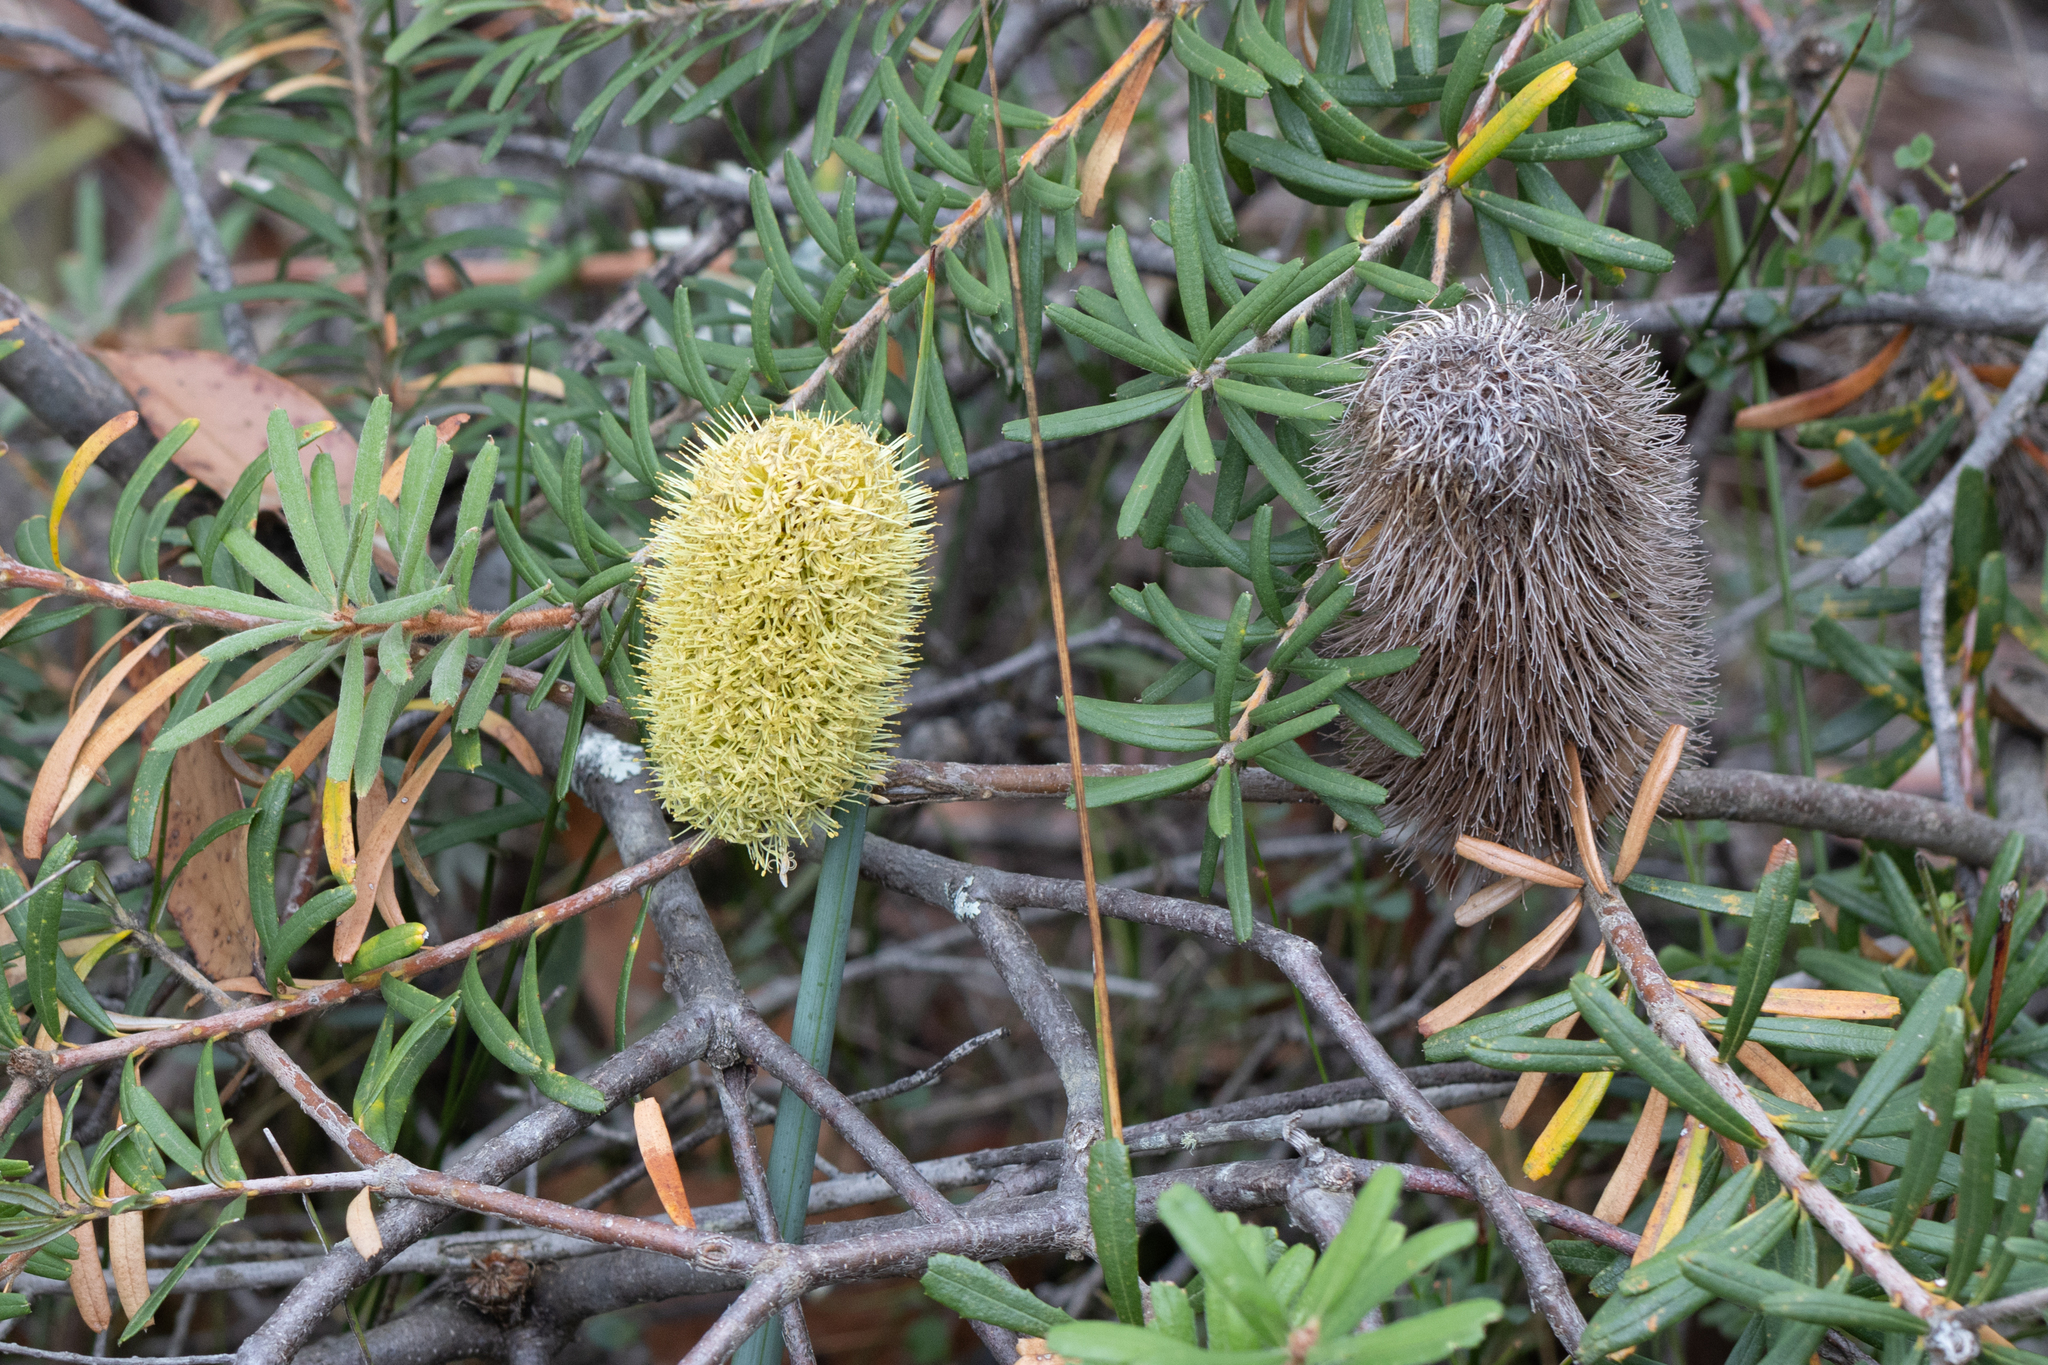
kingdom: Plantae
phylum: Tracheophyta
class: Magnoliopsida
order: Proteales
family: Proteaceae
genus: Banksia
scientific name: Banksia marginata
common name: Silver banksia
